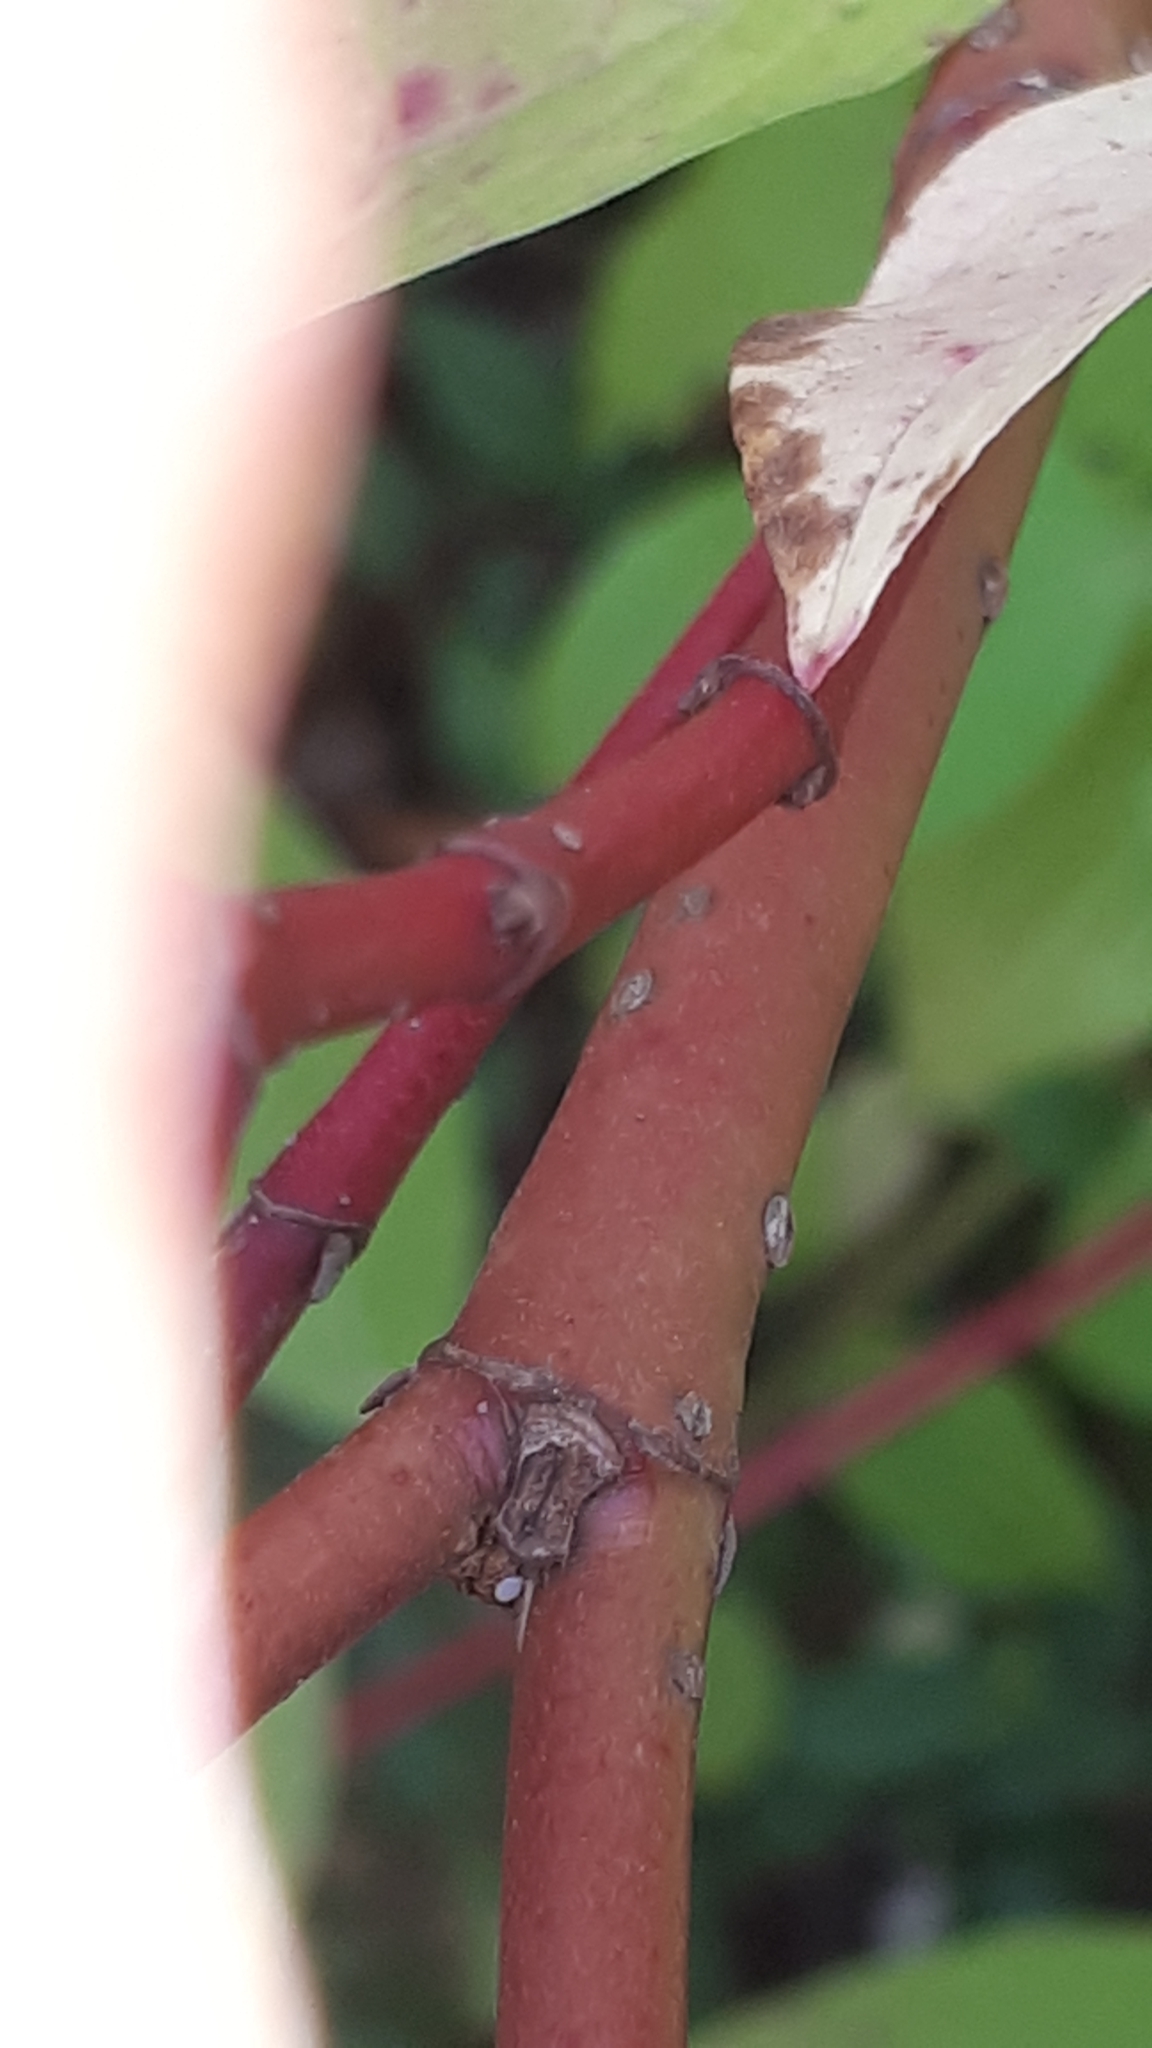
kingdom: Plantae
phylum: Tracheophyta
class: Magnoliopsida
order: Cornales
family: Cornaceae
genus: Cornus
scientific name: Cornus sericea
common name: Red-osier dogwood
